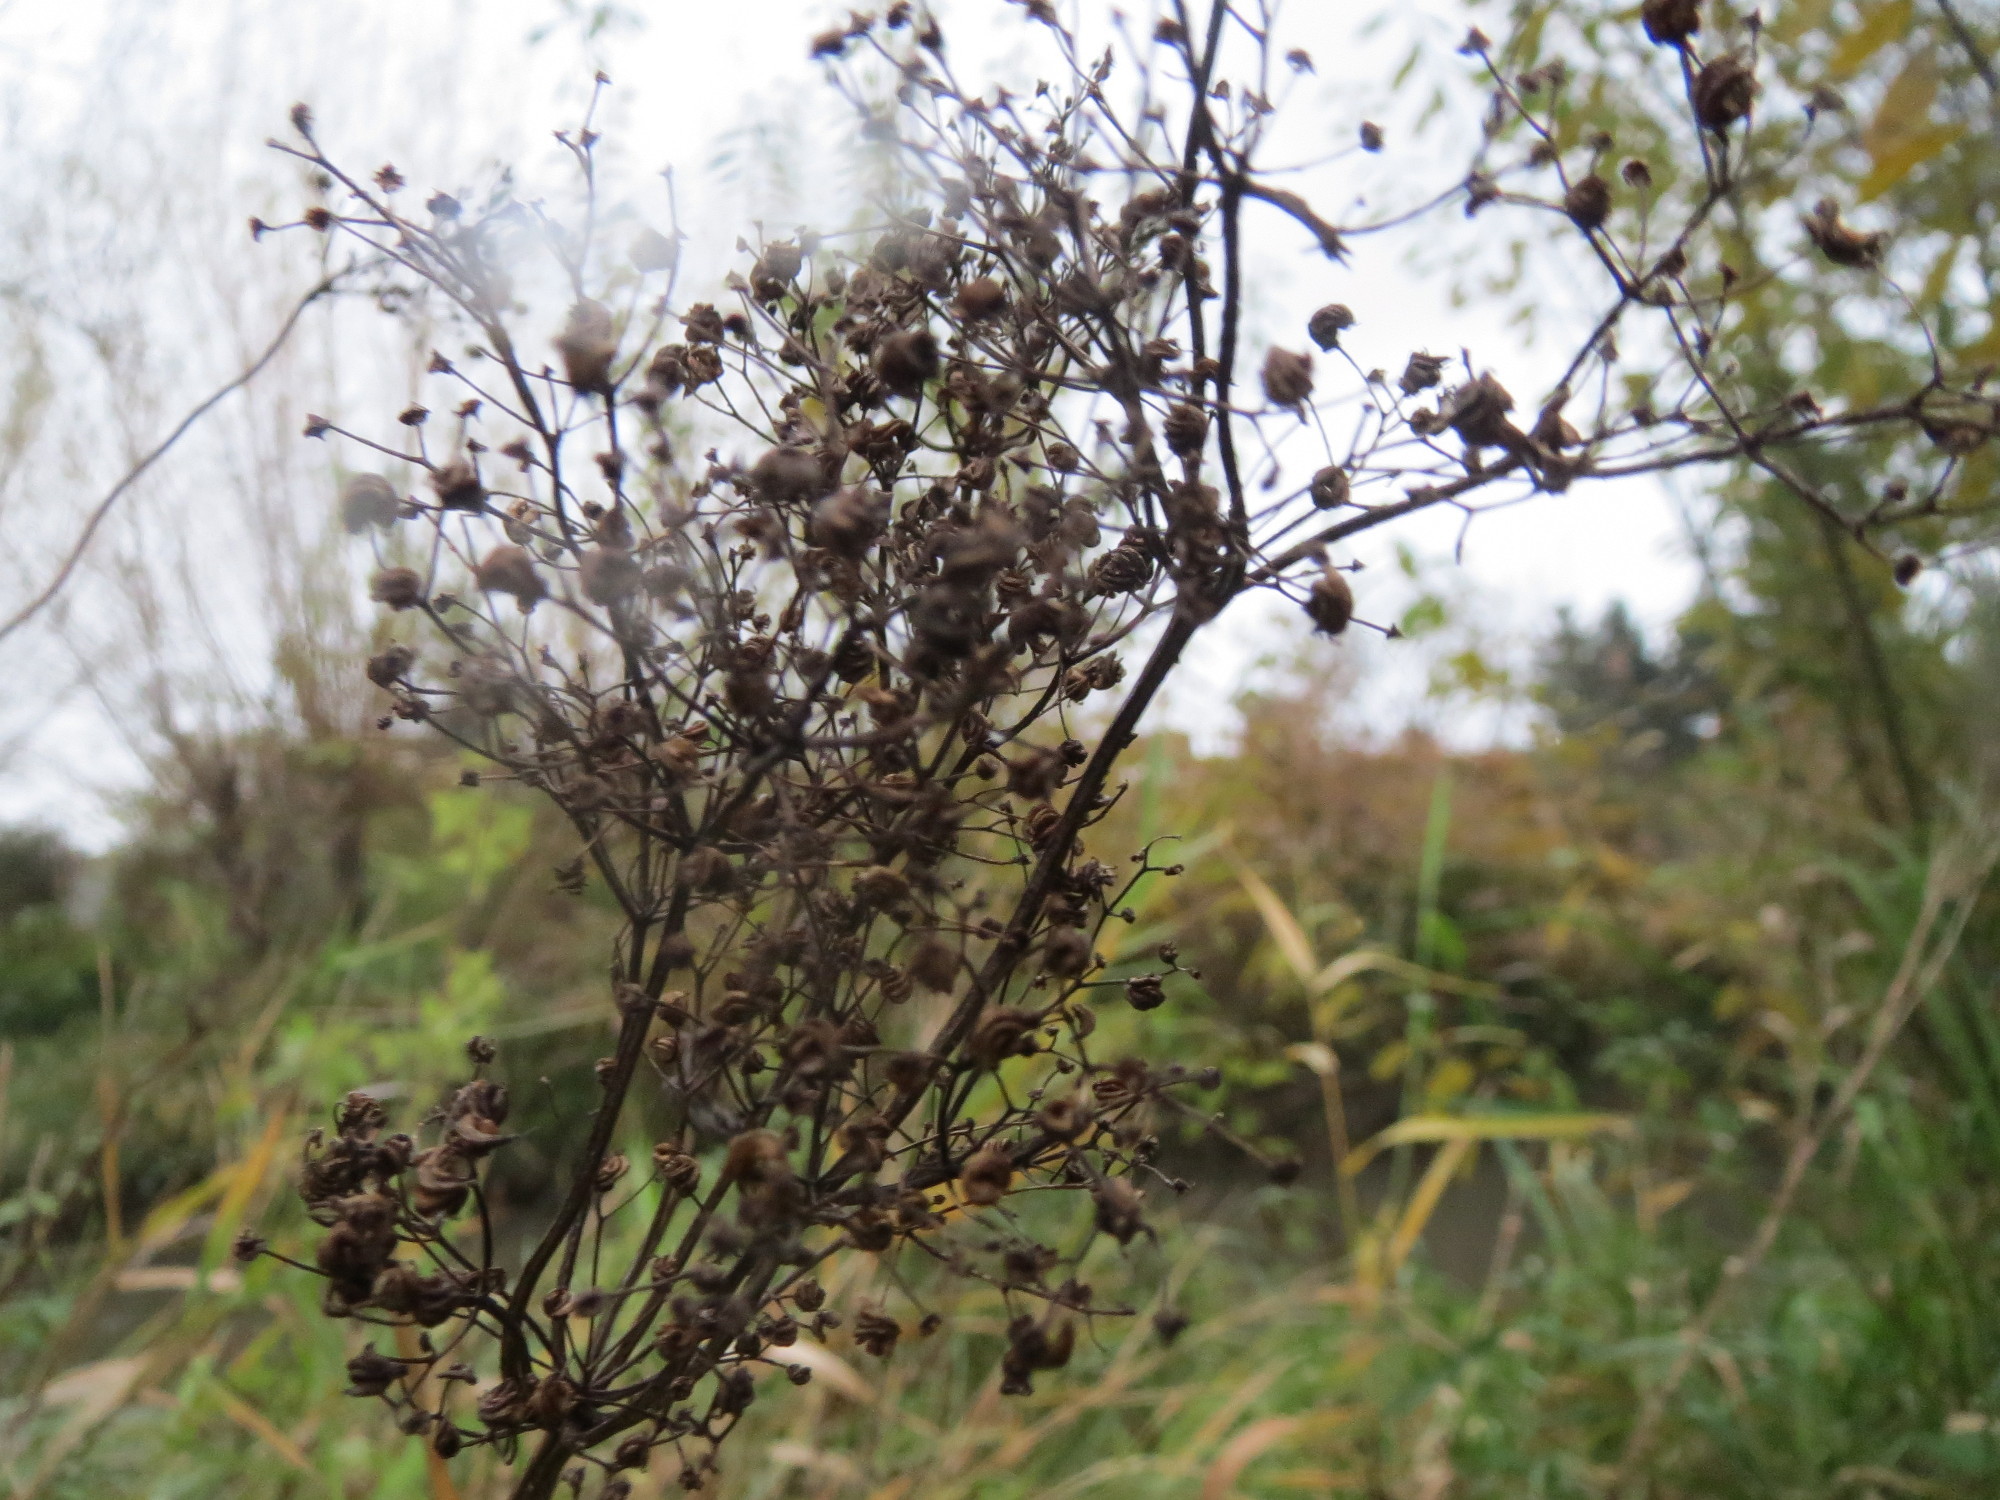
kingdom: Plantae
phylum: Tracheophyta
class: Magnoliopsida
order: Rosales
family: Rosaceae
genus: Filipendula
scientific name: Filipendula ulmaria
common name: Meadowsweet
